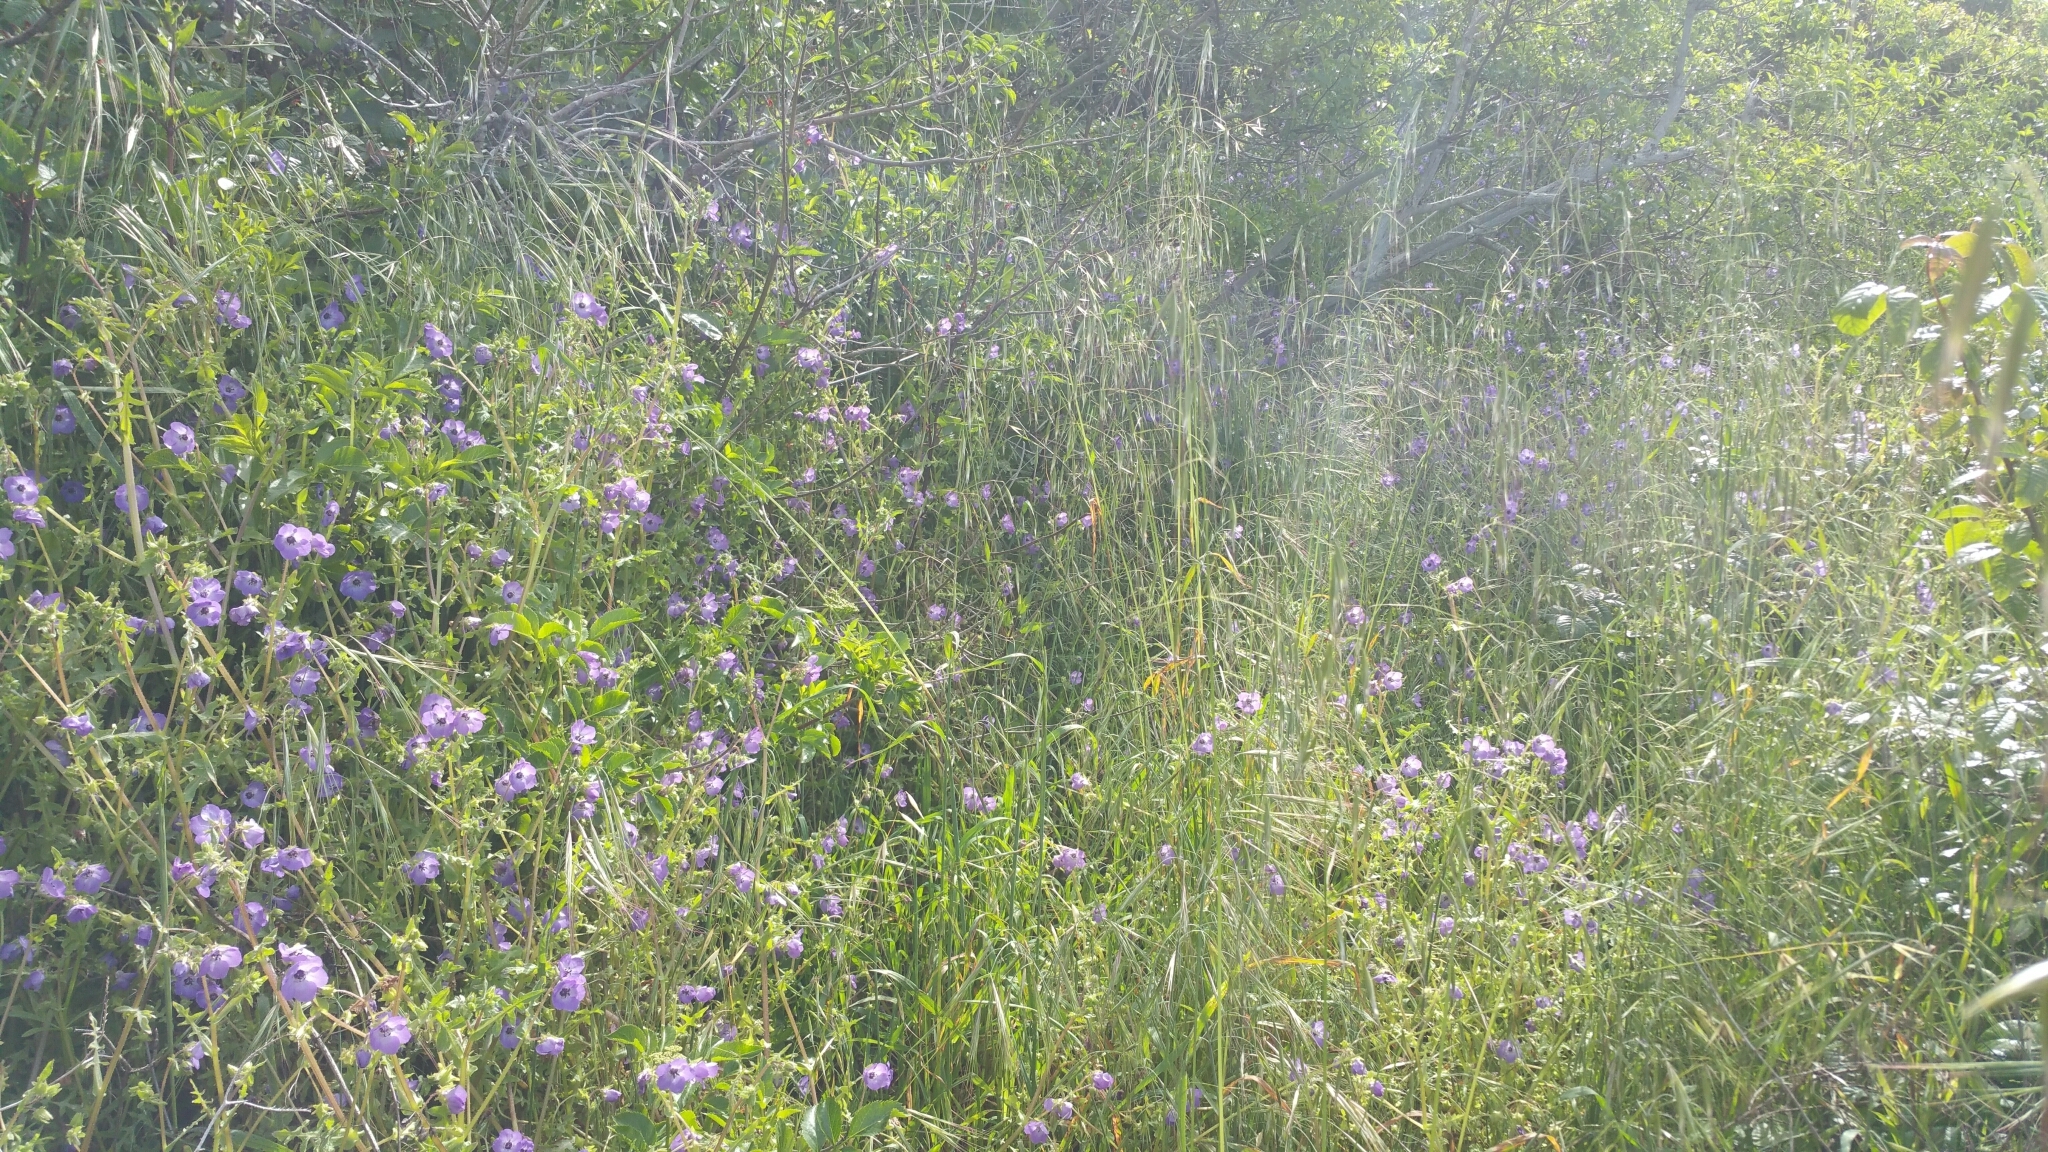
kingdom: Plantae
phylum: Tracheophyta
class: Magnoliopsida
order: Boraginales
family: Hydrophyllaceae
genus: Pholistoma
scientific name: Pholistoma auritum
